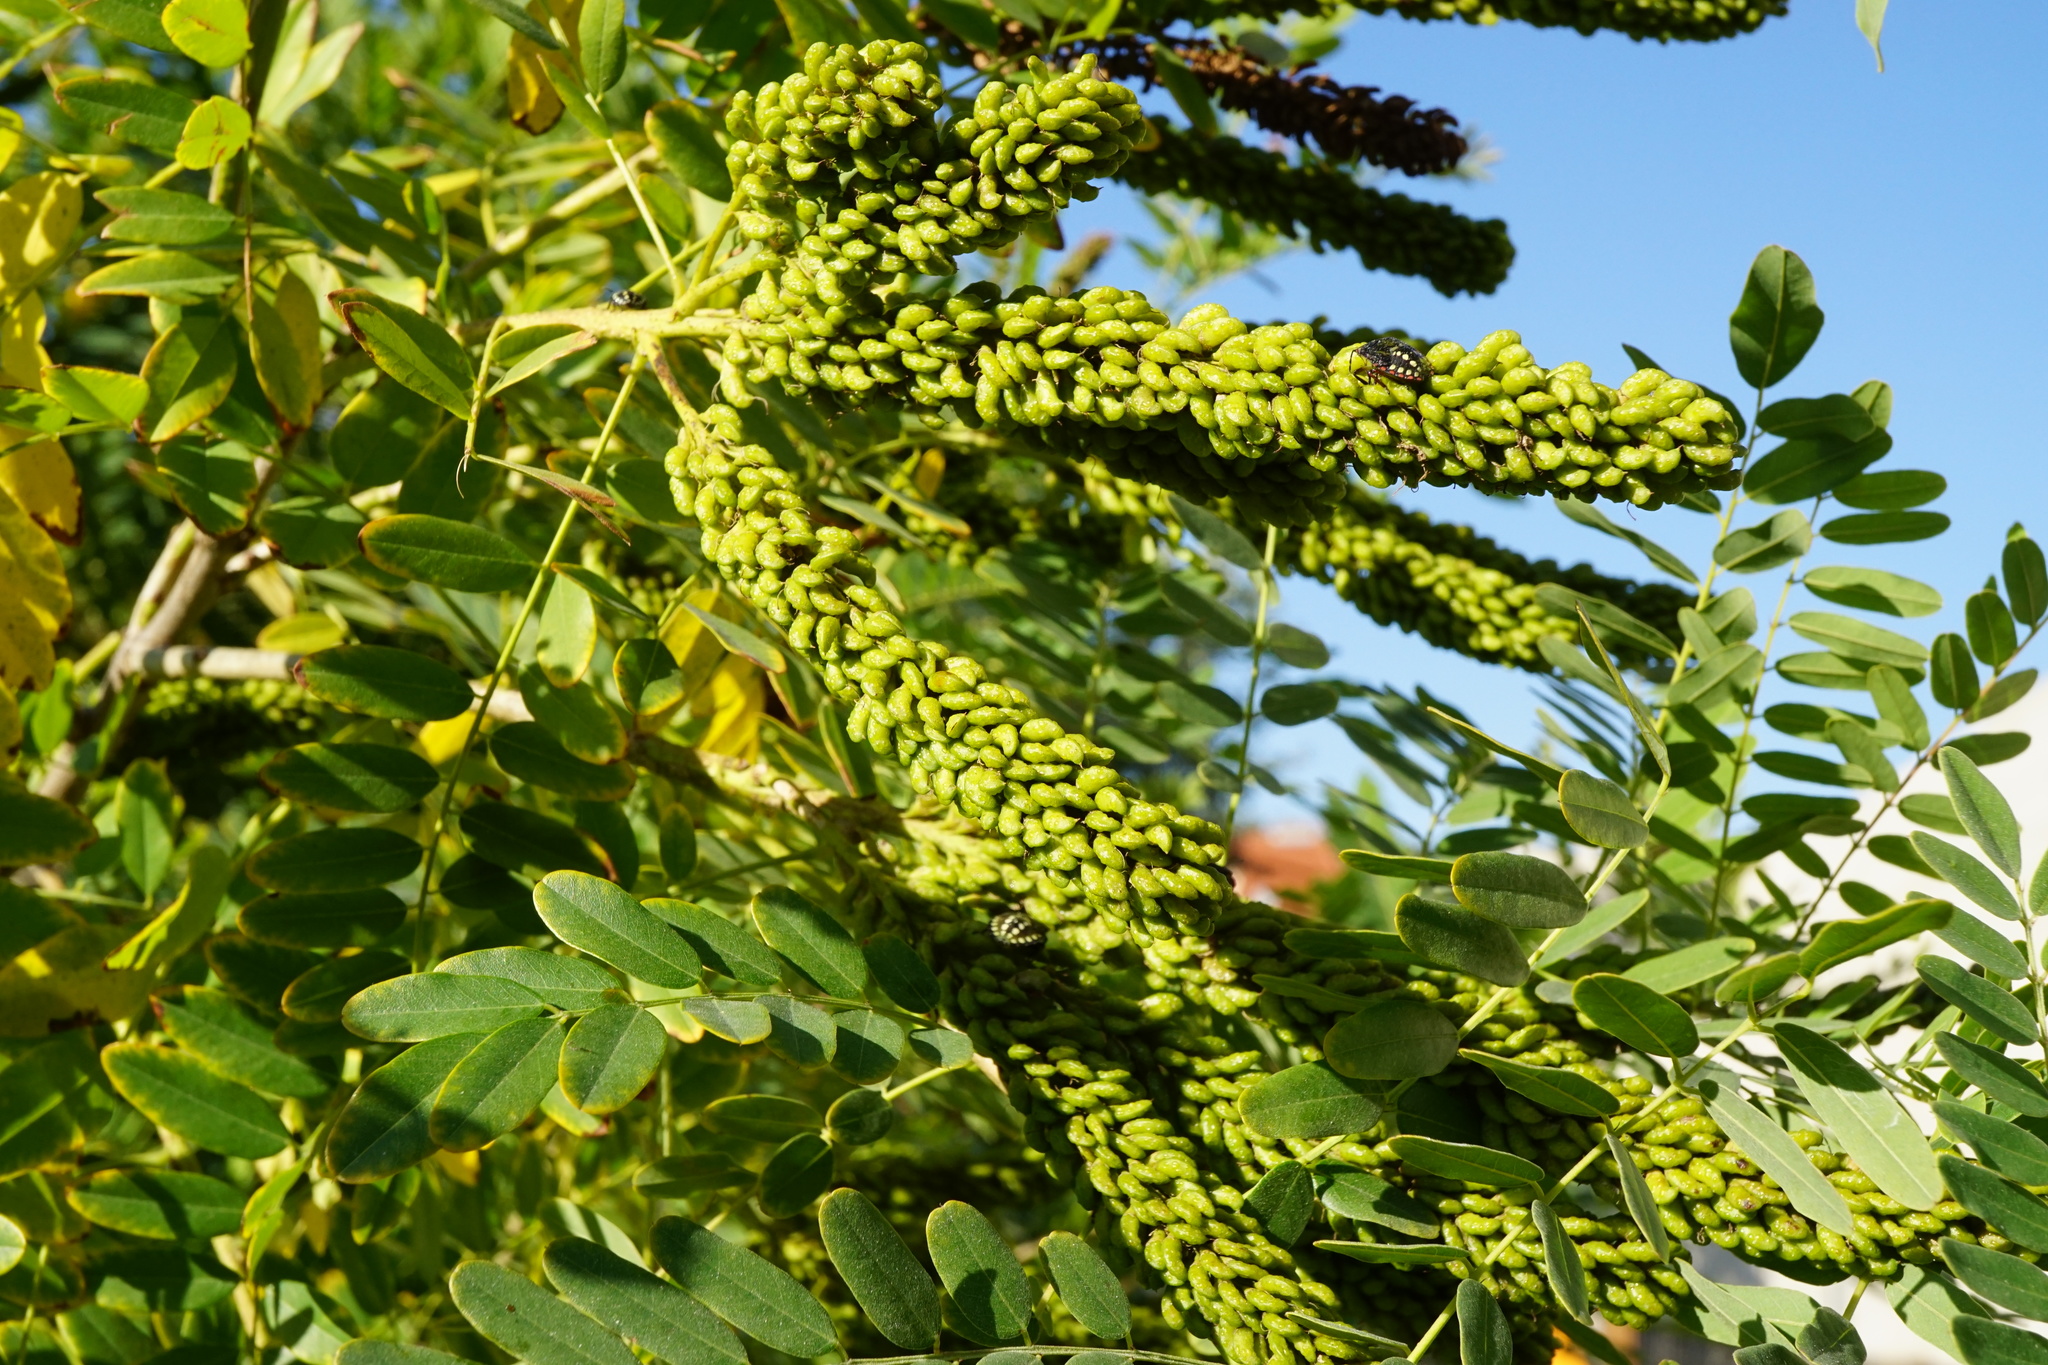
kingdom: Plantae
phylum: Tracheophyta
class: Magnoliopsida
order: Fabales
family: Fabaceae
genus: Amorpha
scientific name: Amorpha fruticosa
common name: False indigo
